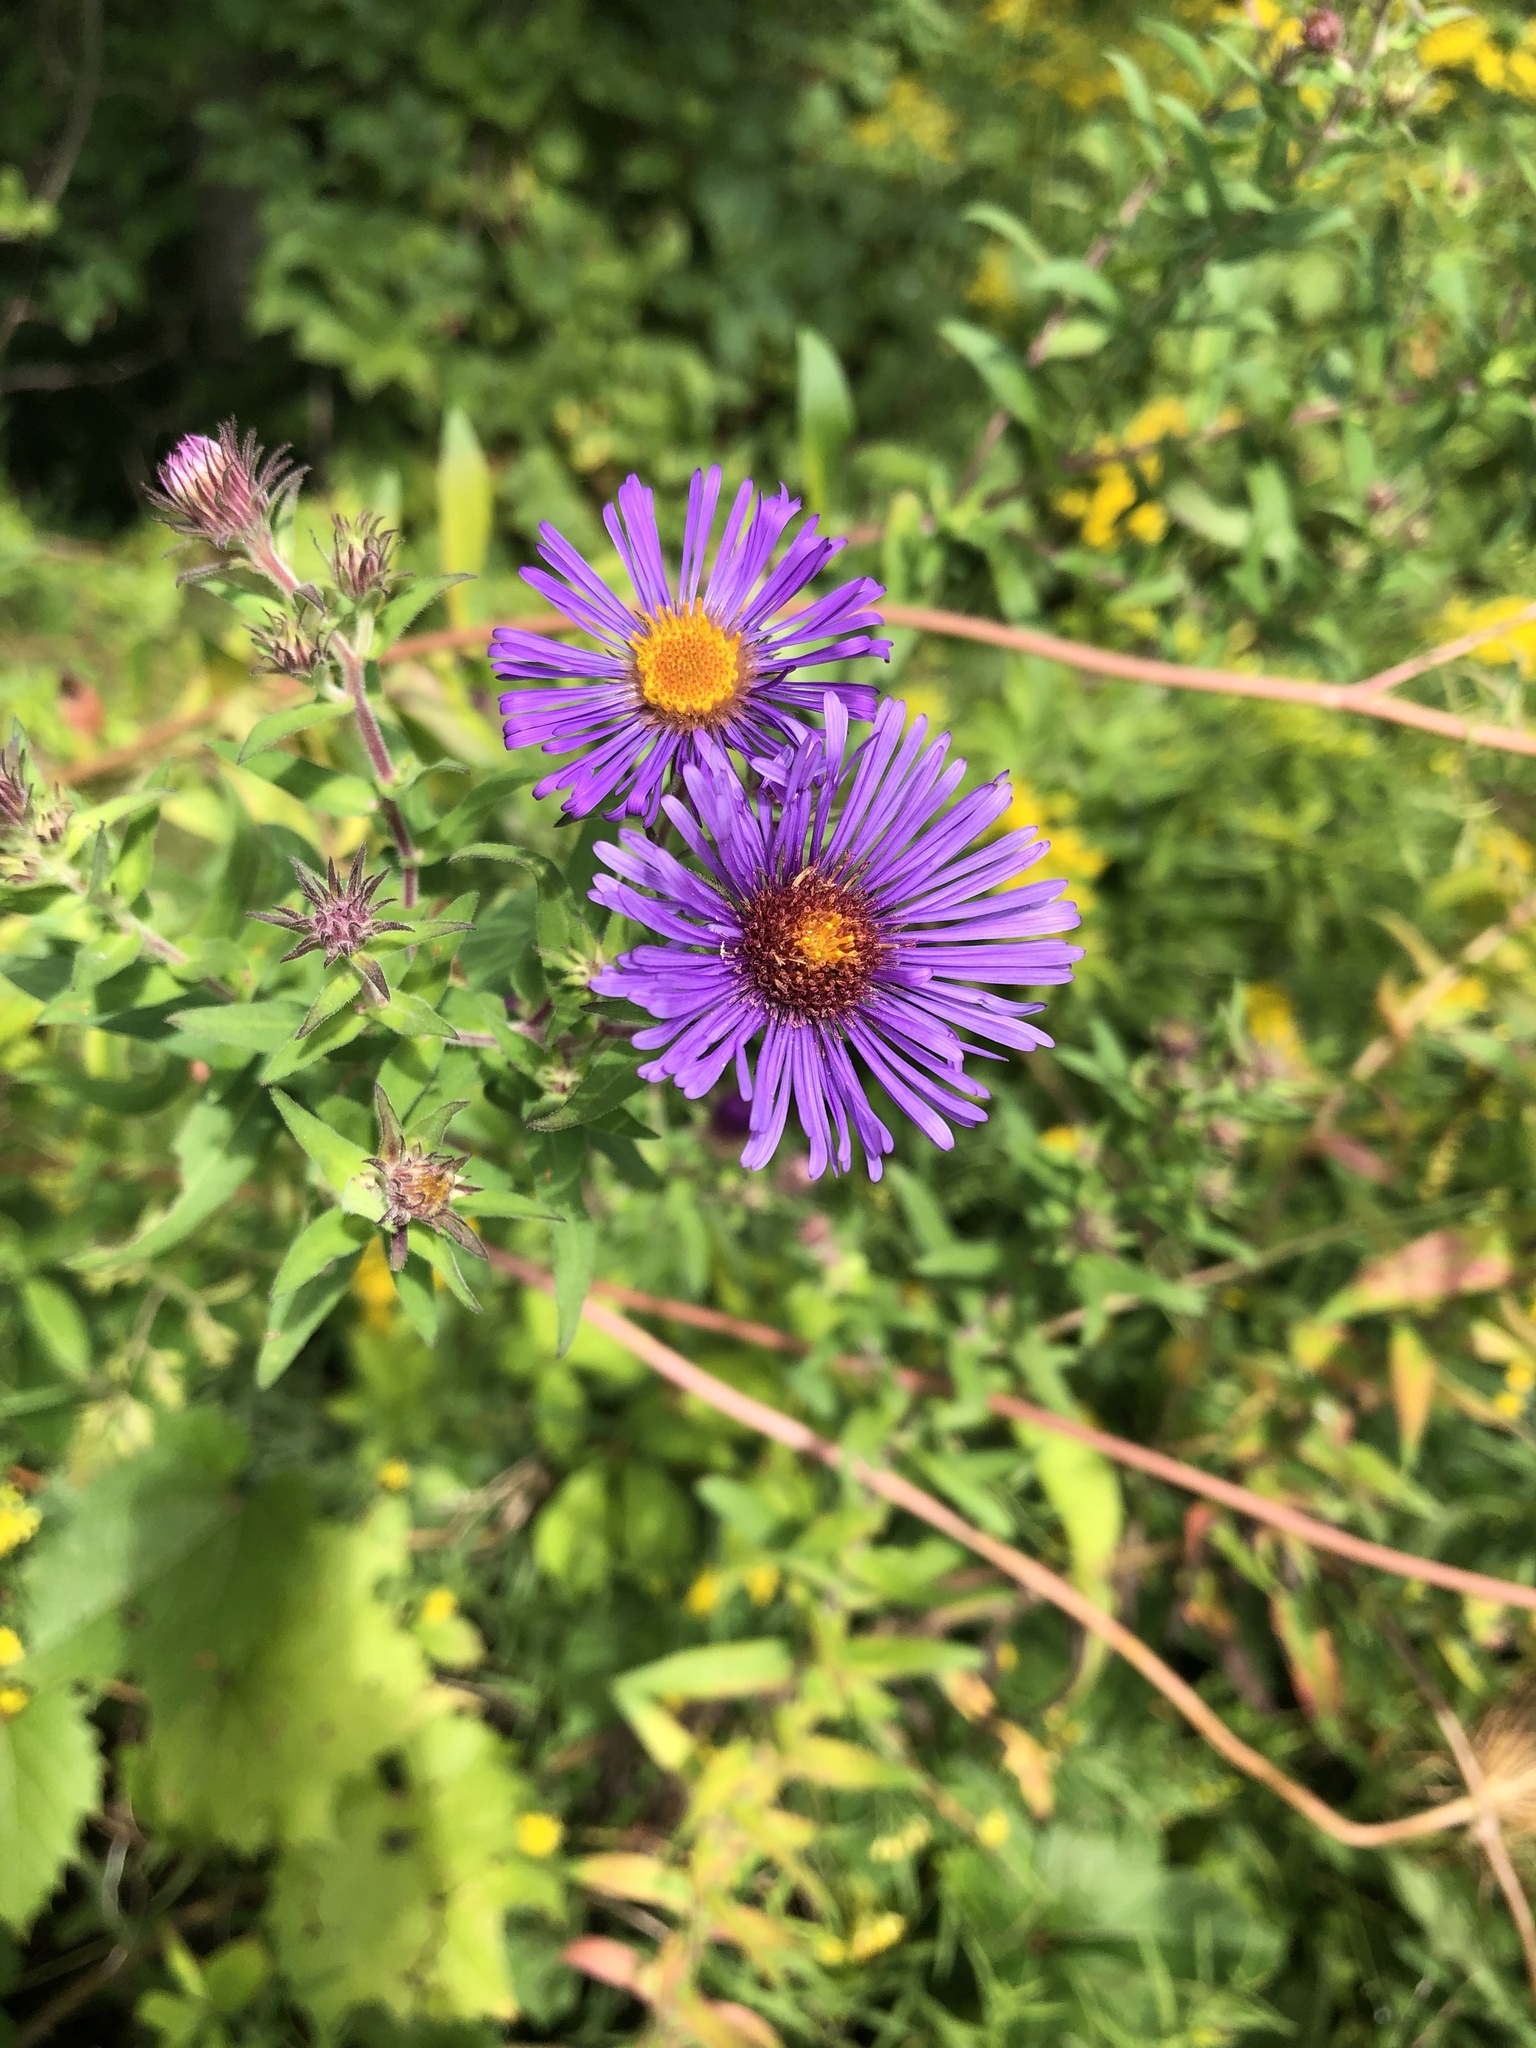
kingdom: Plantae
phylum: Tracheophyta
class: Magnoliopsida
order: Asterales
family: Asteraceae
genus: Symphyotrichum
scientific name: Symphyotrichum novae-angliae
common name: Michaelmas daisy
